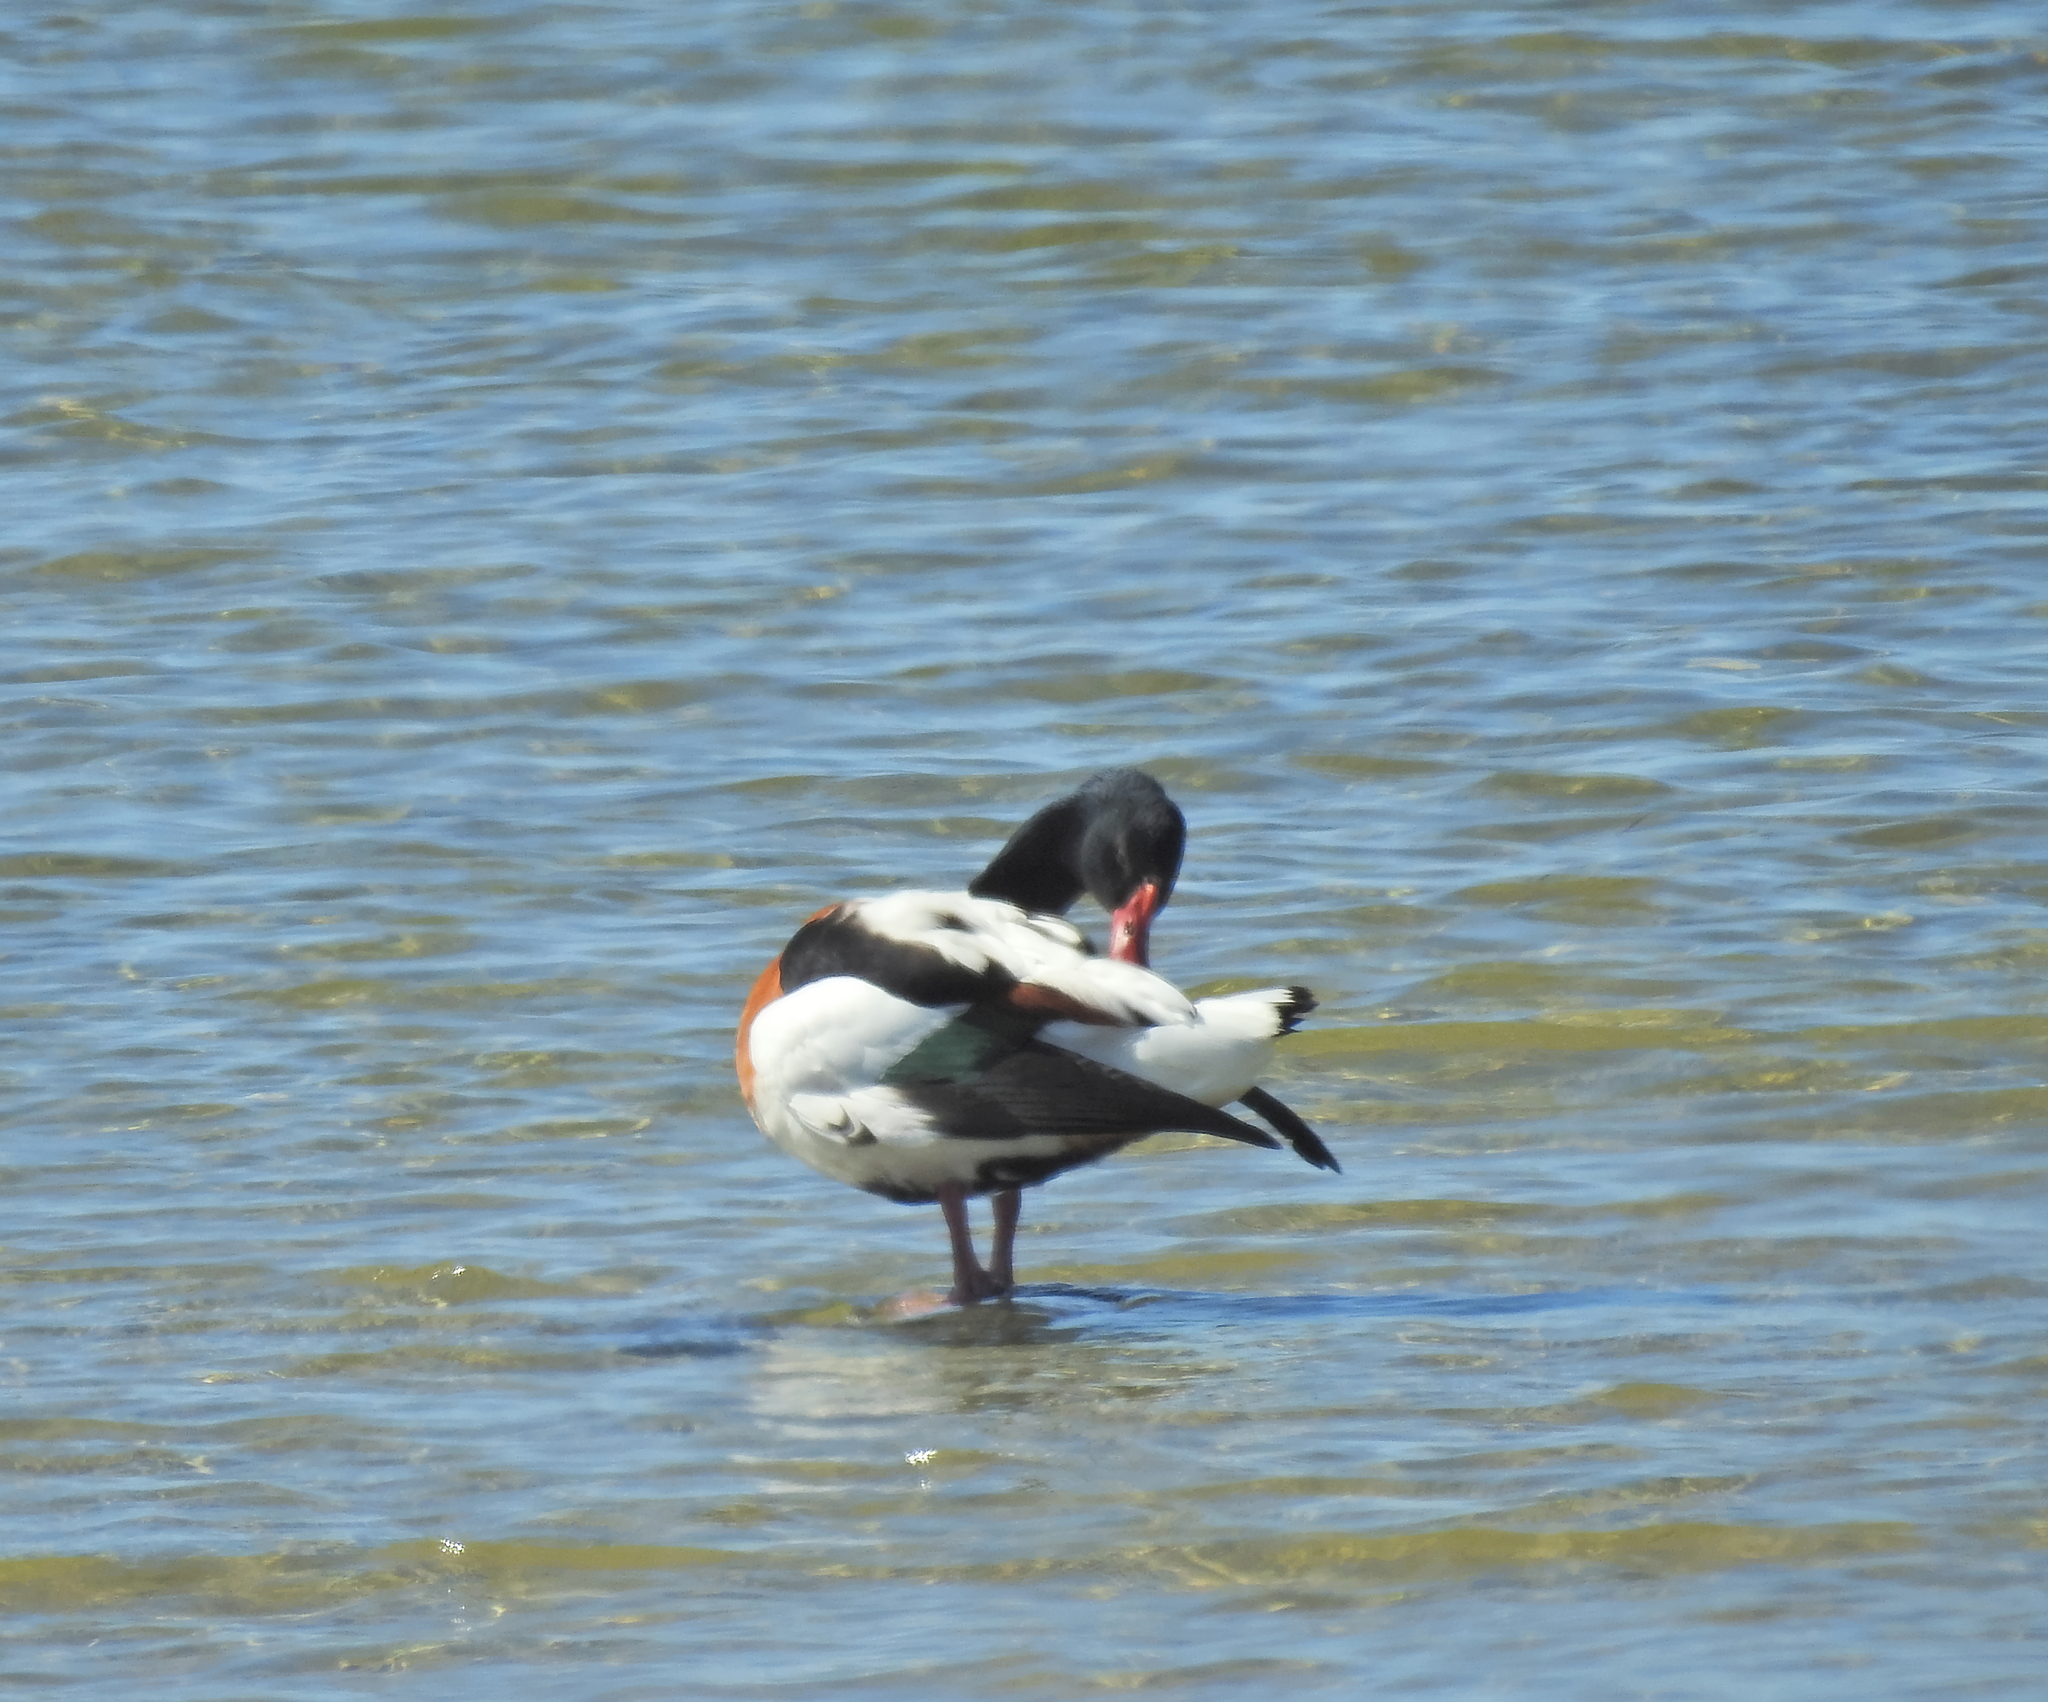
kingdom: Animalia
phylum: Chordata
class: Aves
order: Anseriformes
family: Anatidae
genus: Tadorna
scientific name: Tadorna tadorna
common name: Common shelduck
